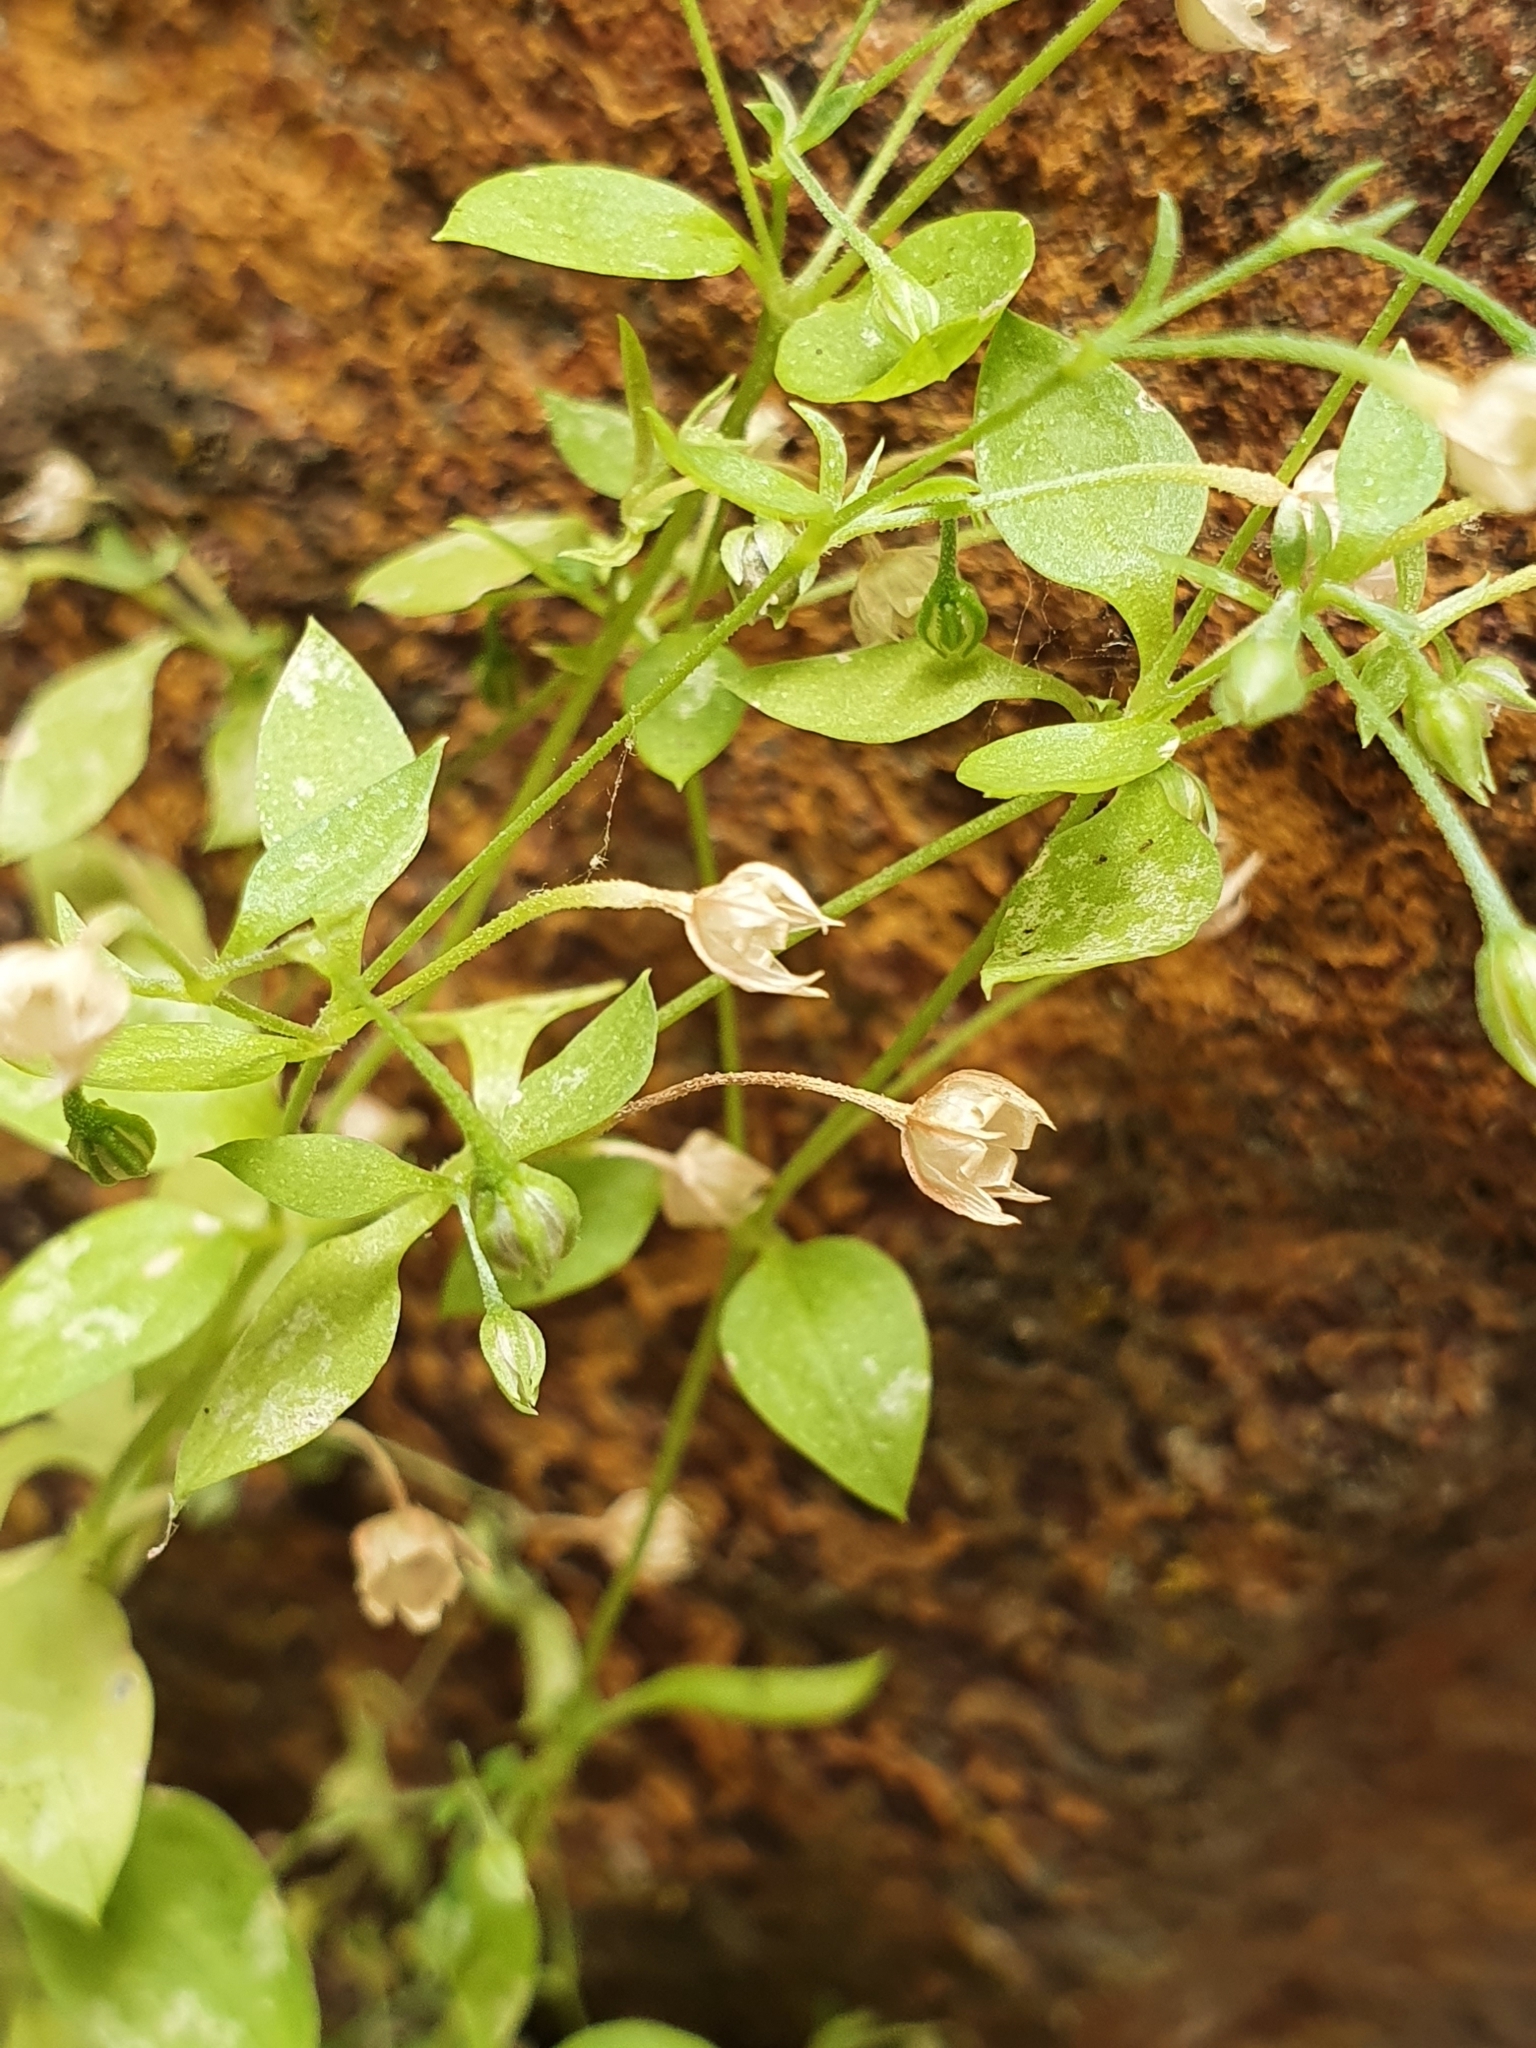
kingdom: Plantae
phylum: Tracheophyta
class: Magnoliopsida
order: Caryophyllales
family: Caryophyllaceae
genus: Moehringia
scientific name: Moehringia pentandra
